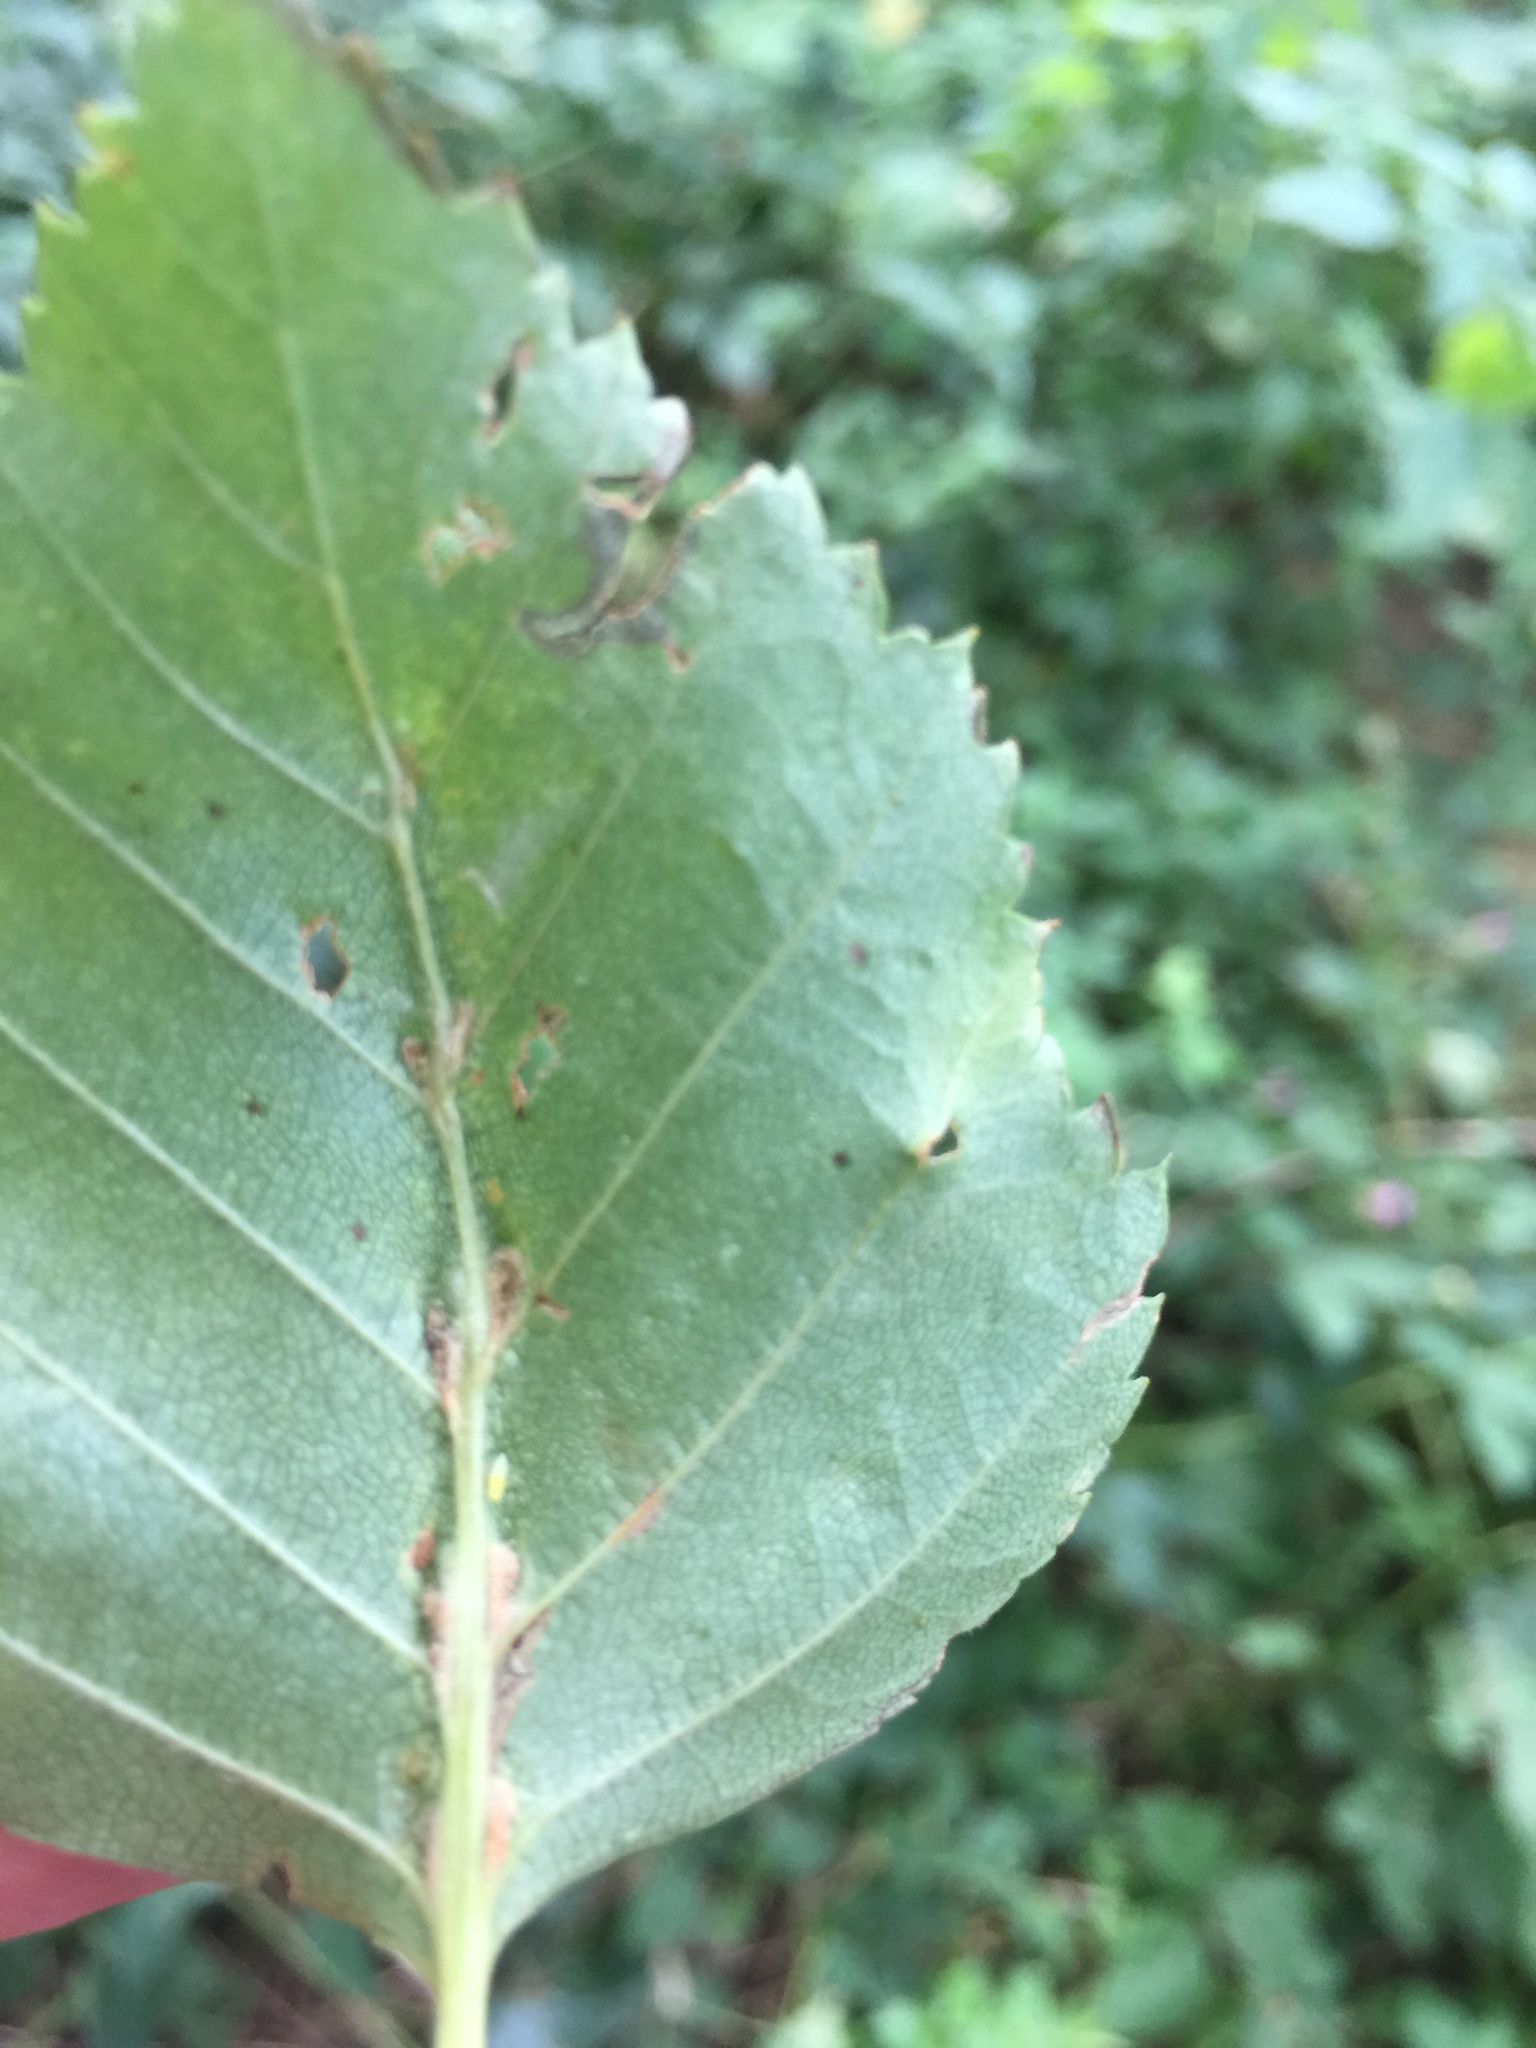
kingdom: Animalia
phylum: Arthropoda
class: Arachnida
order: Trombidiformes
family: Eriophyidae
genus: Aculus
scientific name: Aculus leionotus
